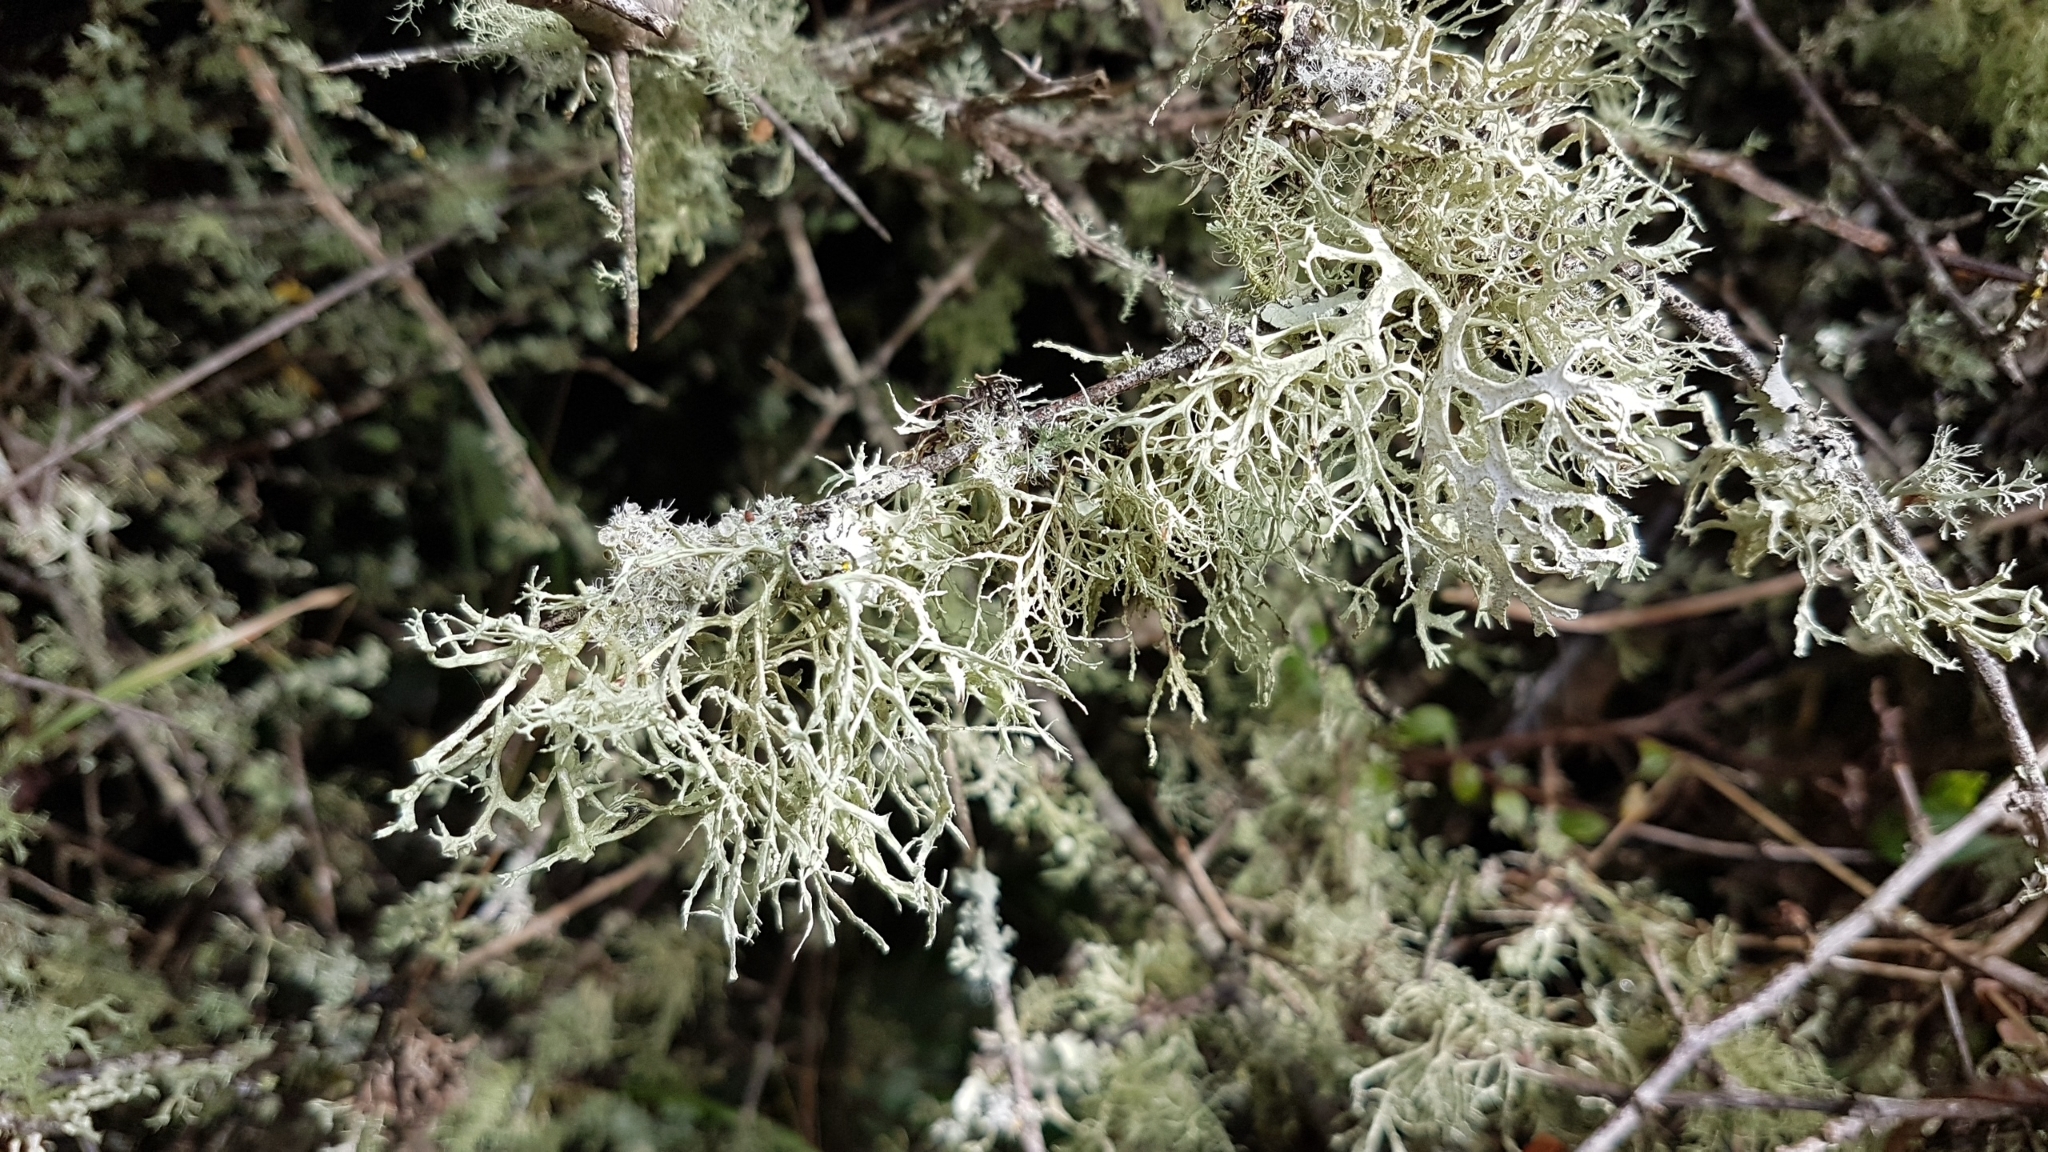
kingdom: Fungi
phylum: Ascomycota
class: Lecanoromycetes
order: Lecanorales
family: Ramalinaceae
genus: Ramalina
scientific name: Ramalina farinacea
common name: Farinose cartilage lichen
